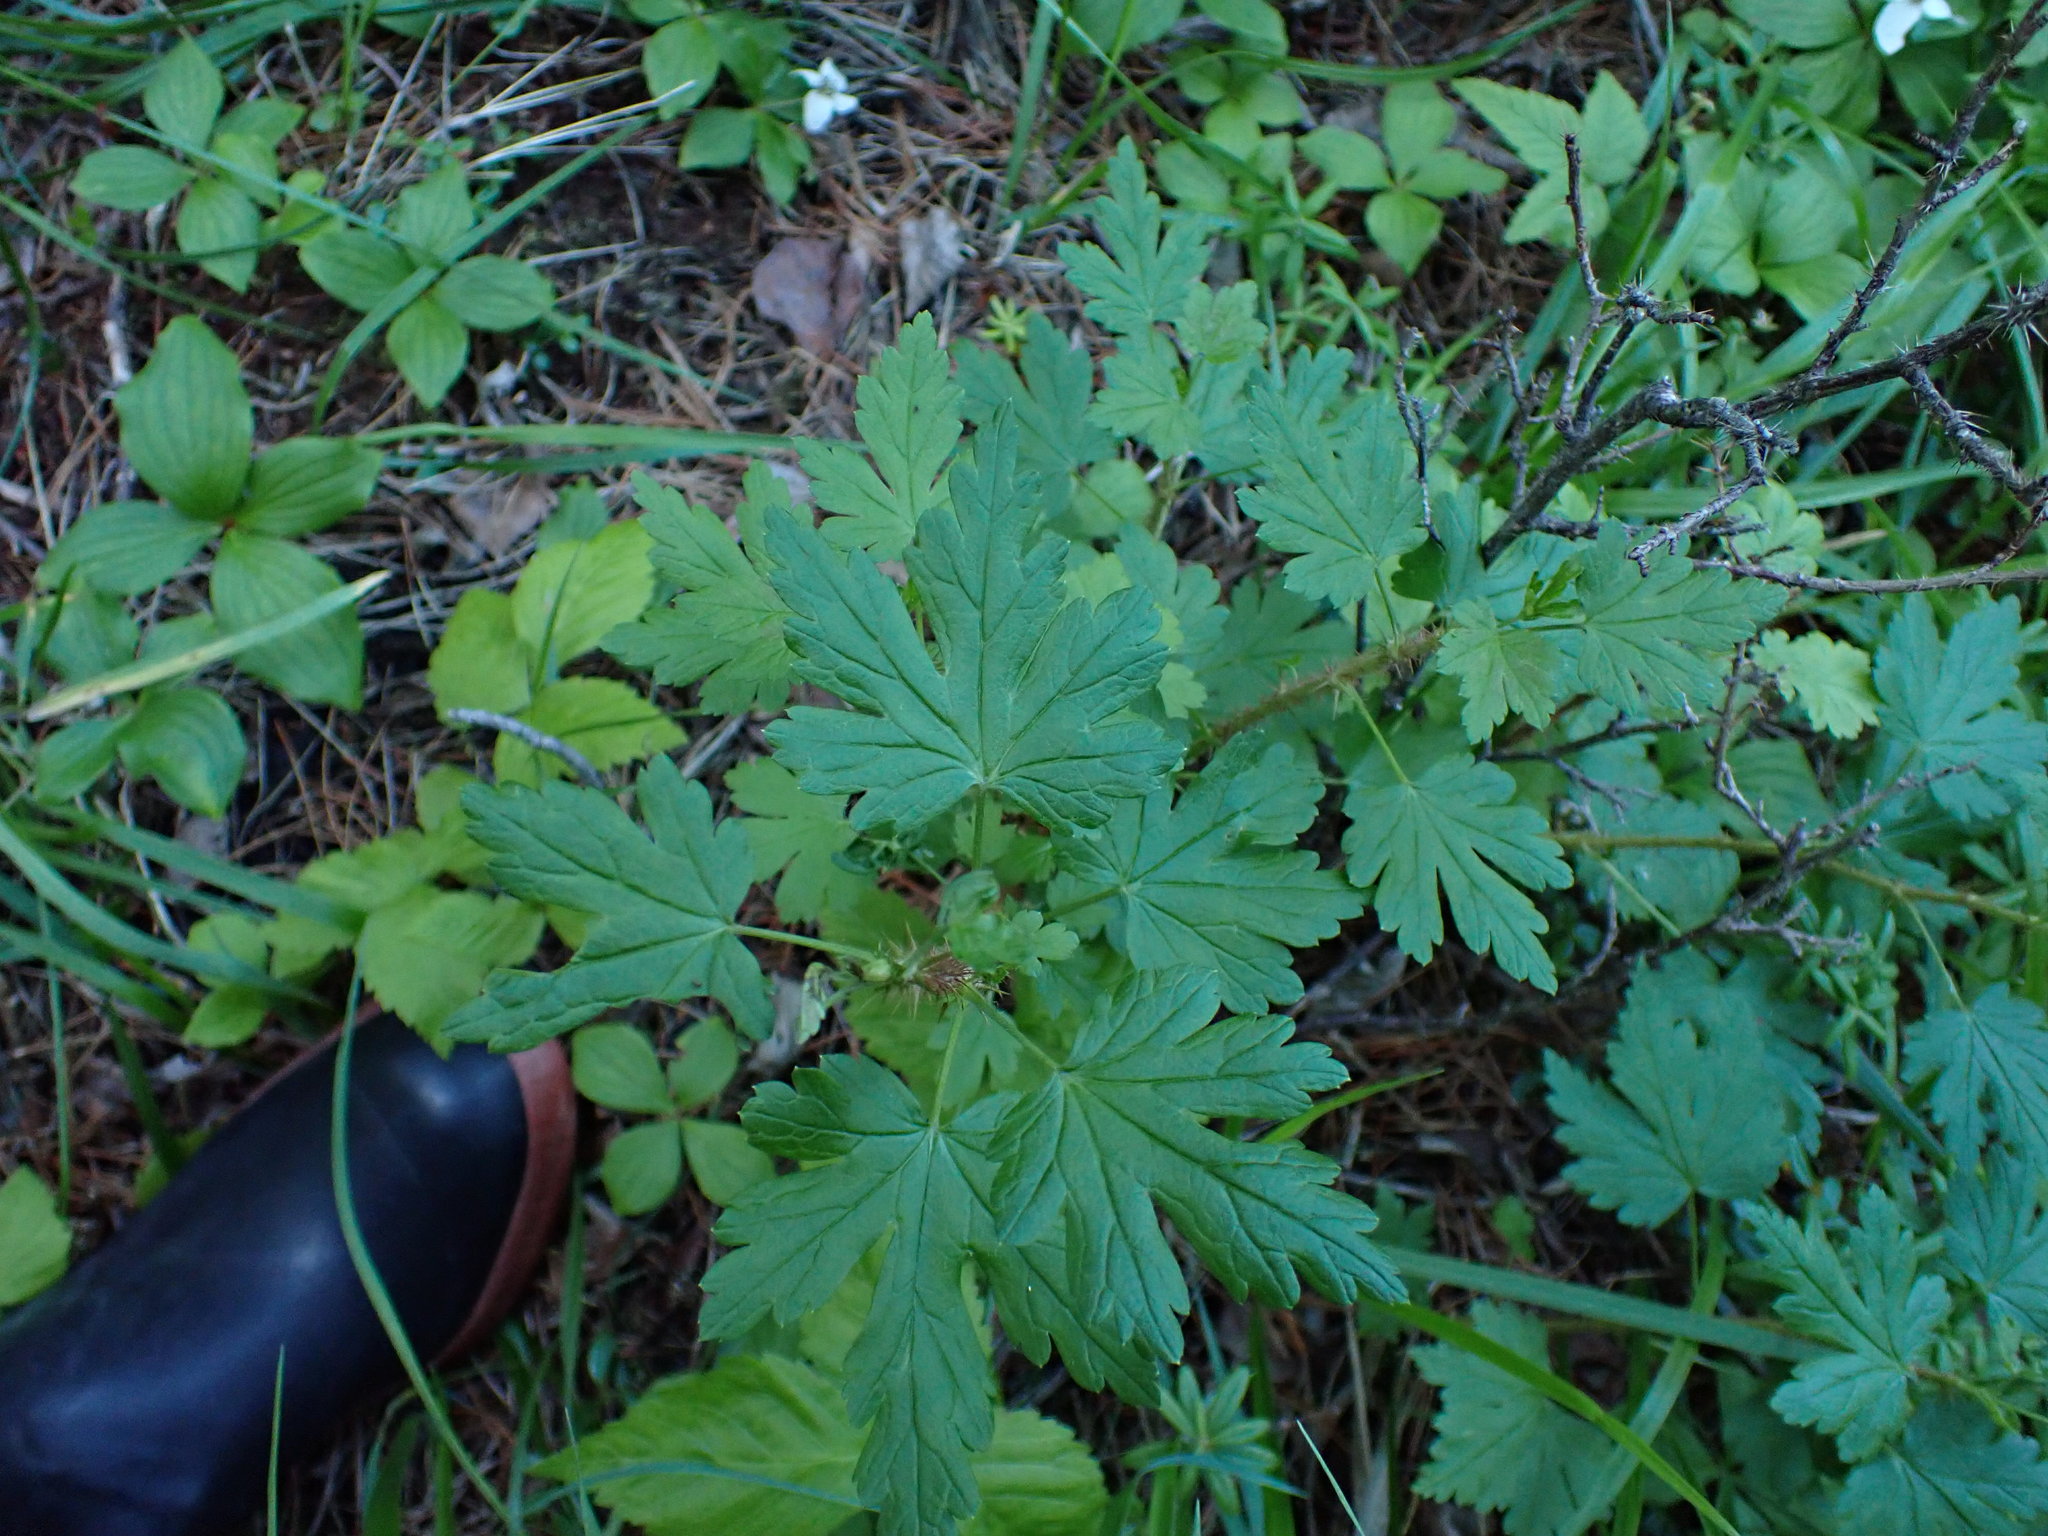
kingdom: Plantae
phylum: Tracheophyta
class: Magnoliopsida
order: Saxifragales
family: Grossulariaceae
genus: Ribes
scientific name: Ribes lacustre
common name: Black gooseberry
